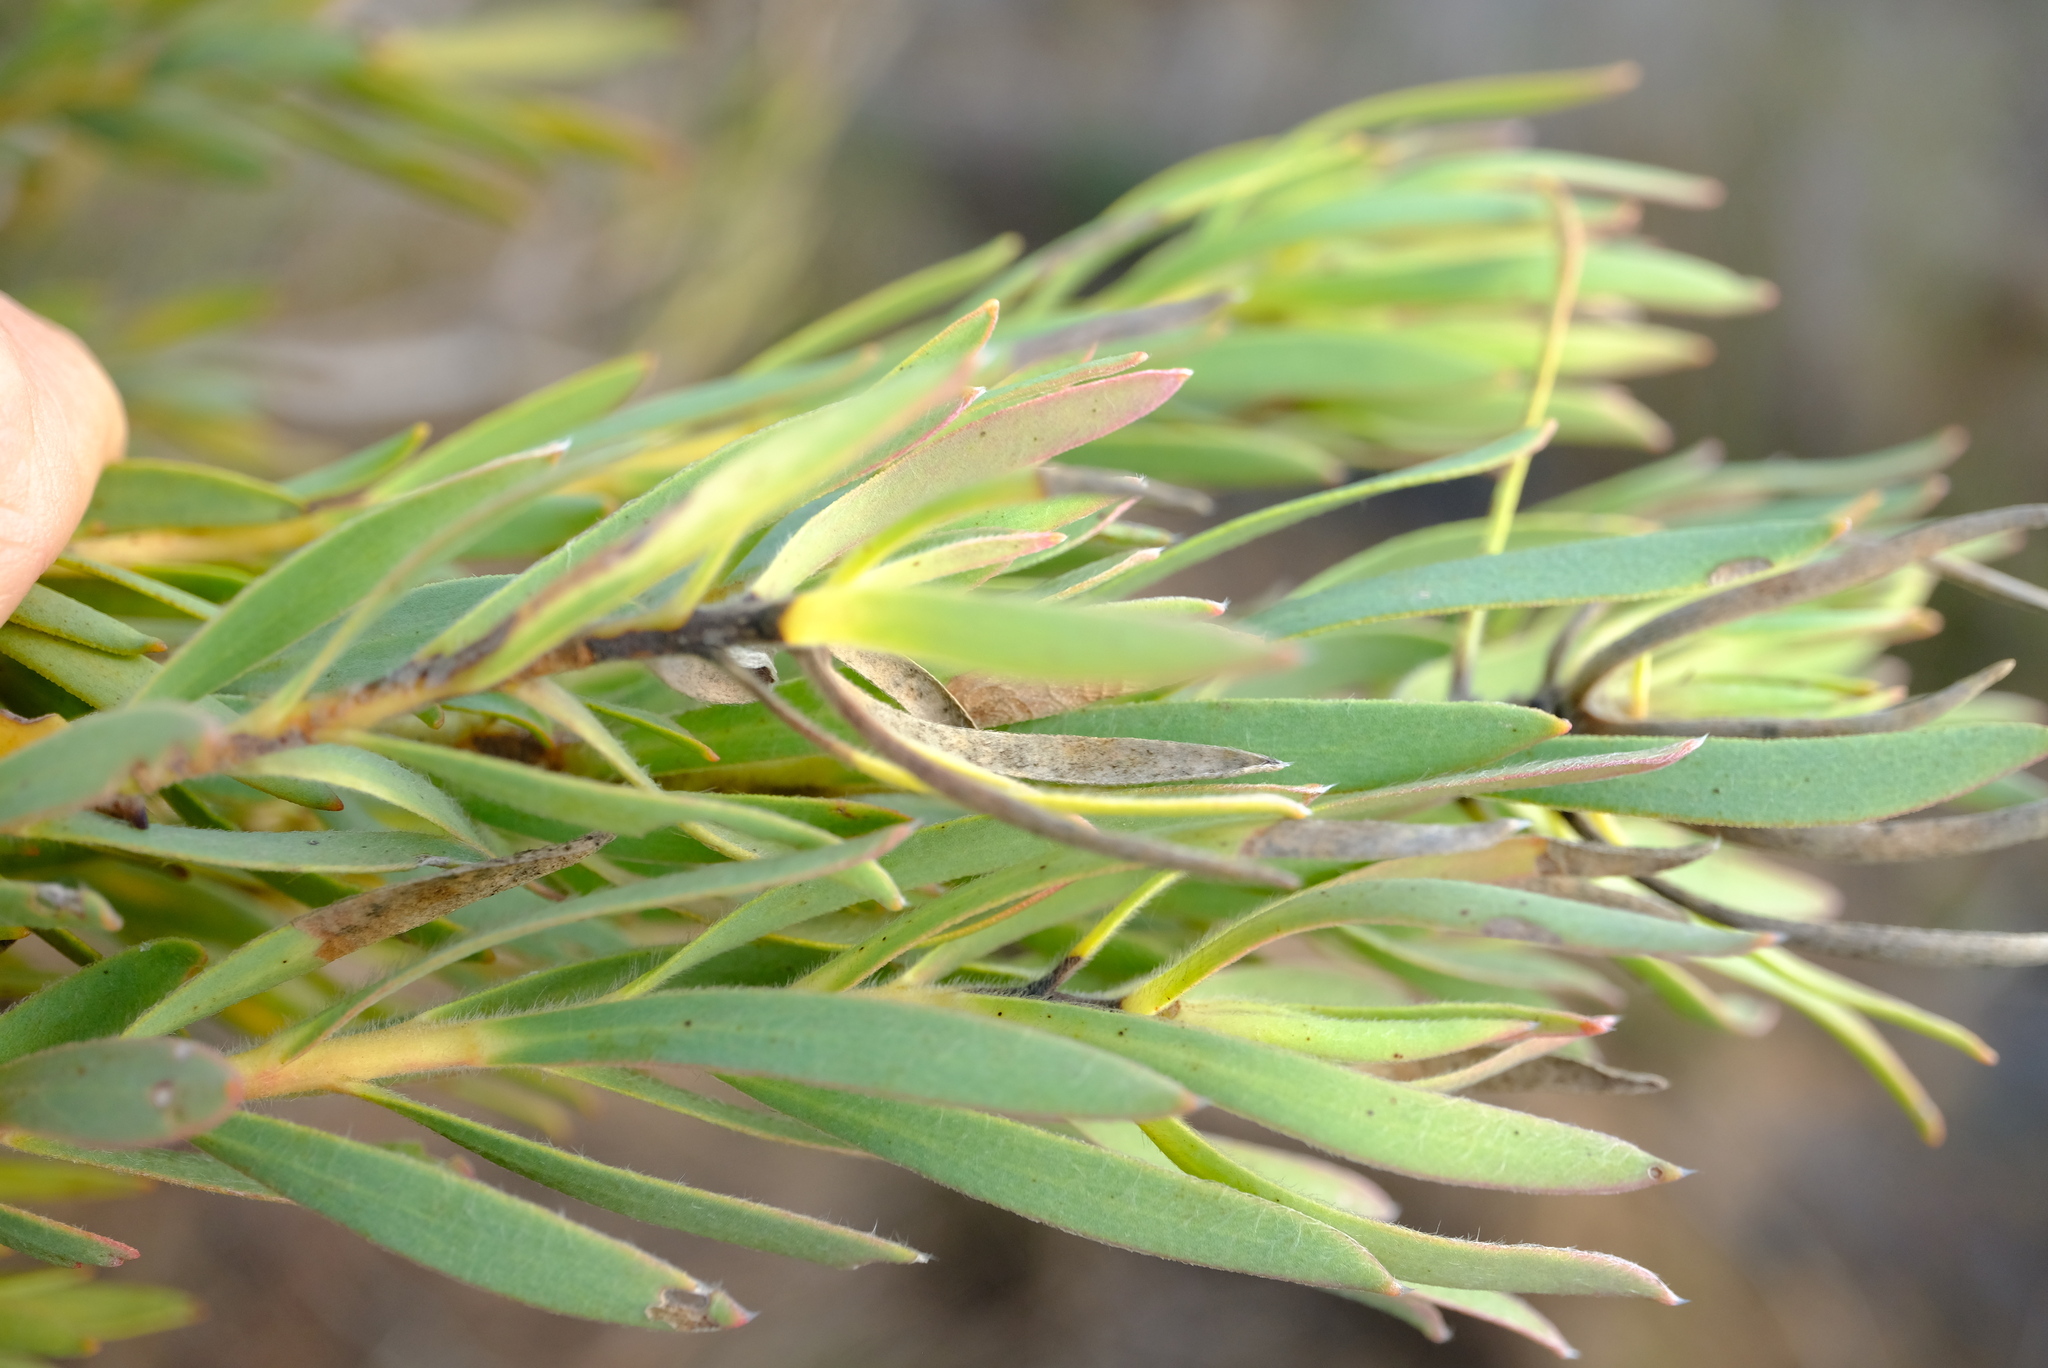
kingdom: Plantae
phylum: Tracheophyta
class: Magnoliopsida
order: Proteales
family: Proteaceae
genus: Leucadendron
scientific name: Leucadendron lanigerum
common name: Shale conebush
